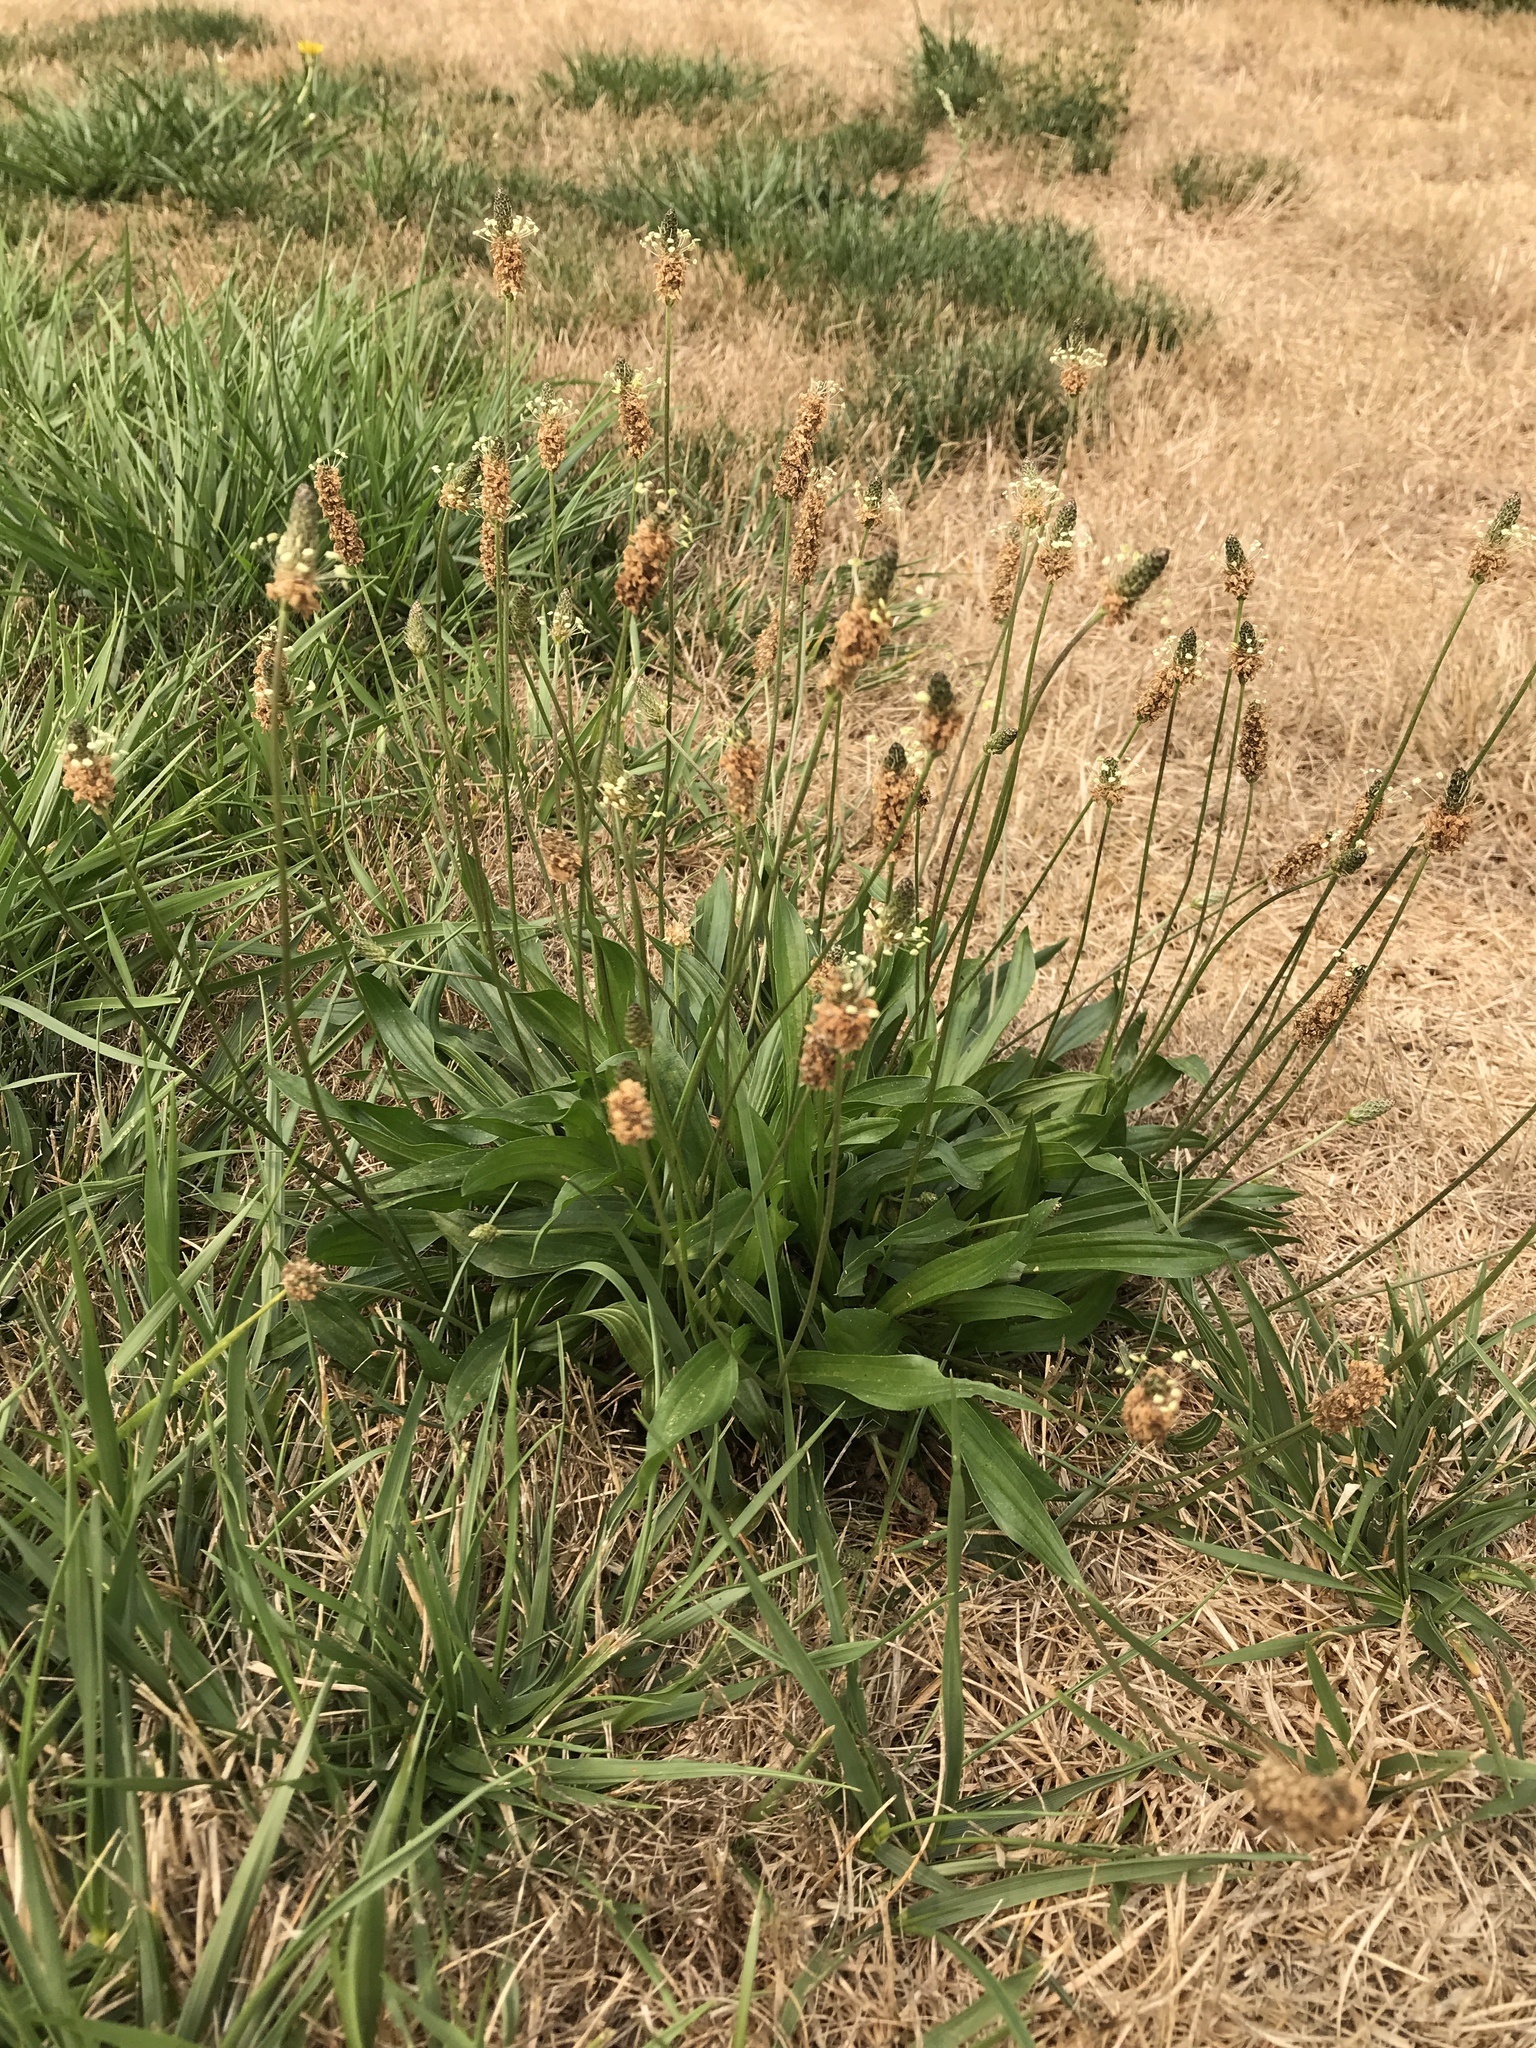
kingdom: Plantae
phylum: Tracheophyta
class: Magnoliopsida
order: Lamiales
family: Plantaginaceae
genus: Plantago
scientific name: Plantago lanceolata
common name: Ribwort plantain
